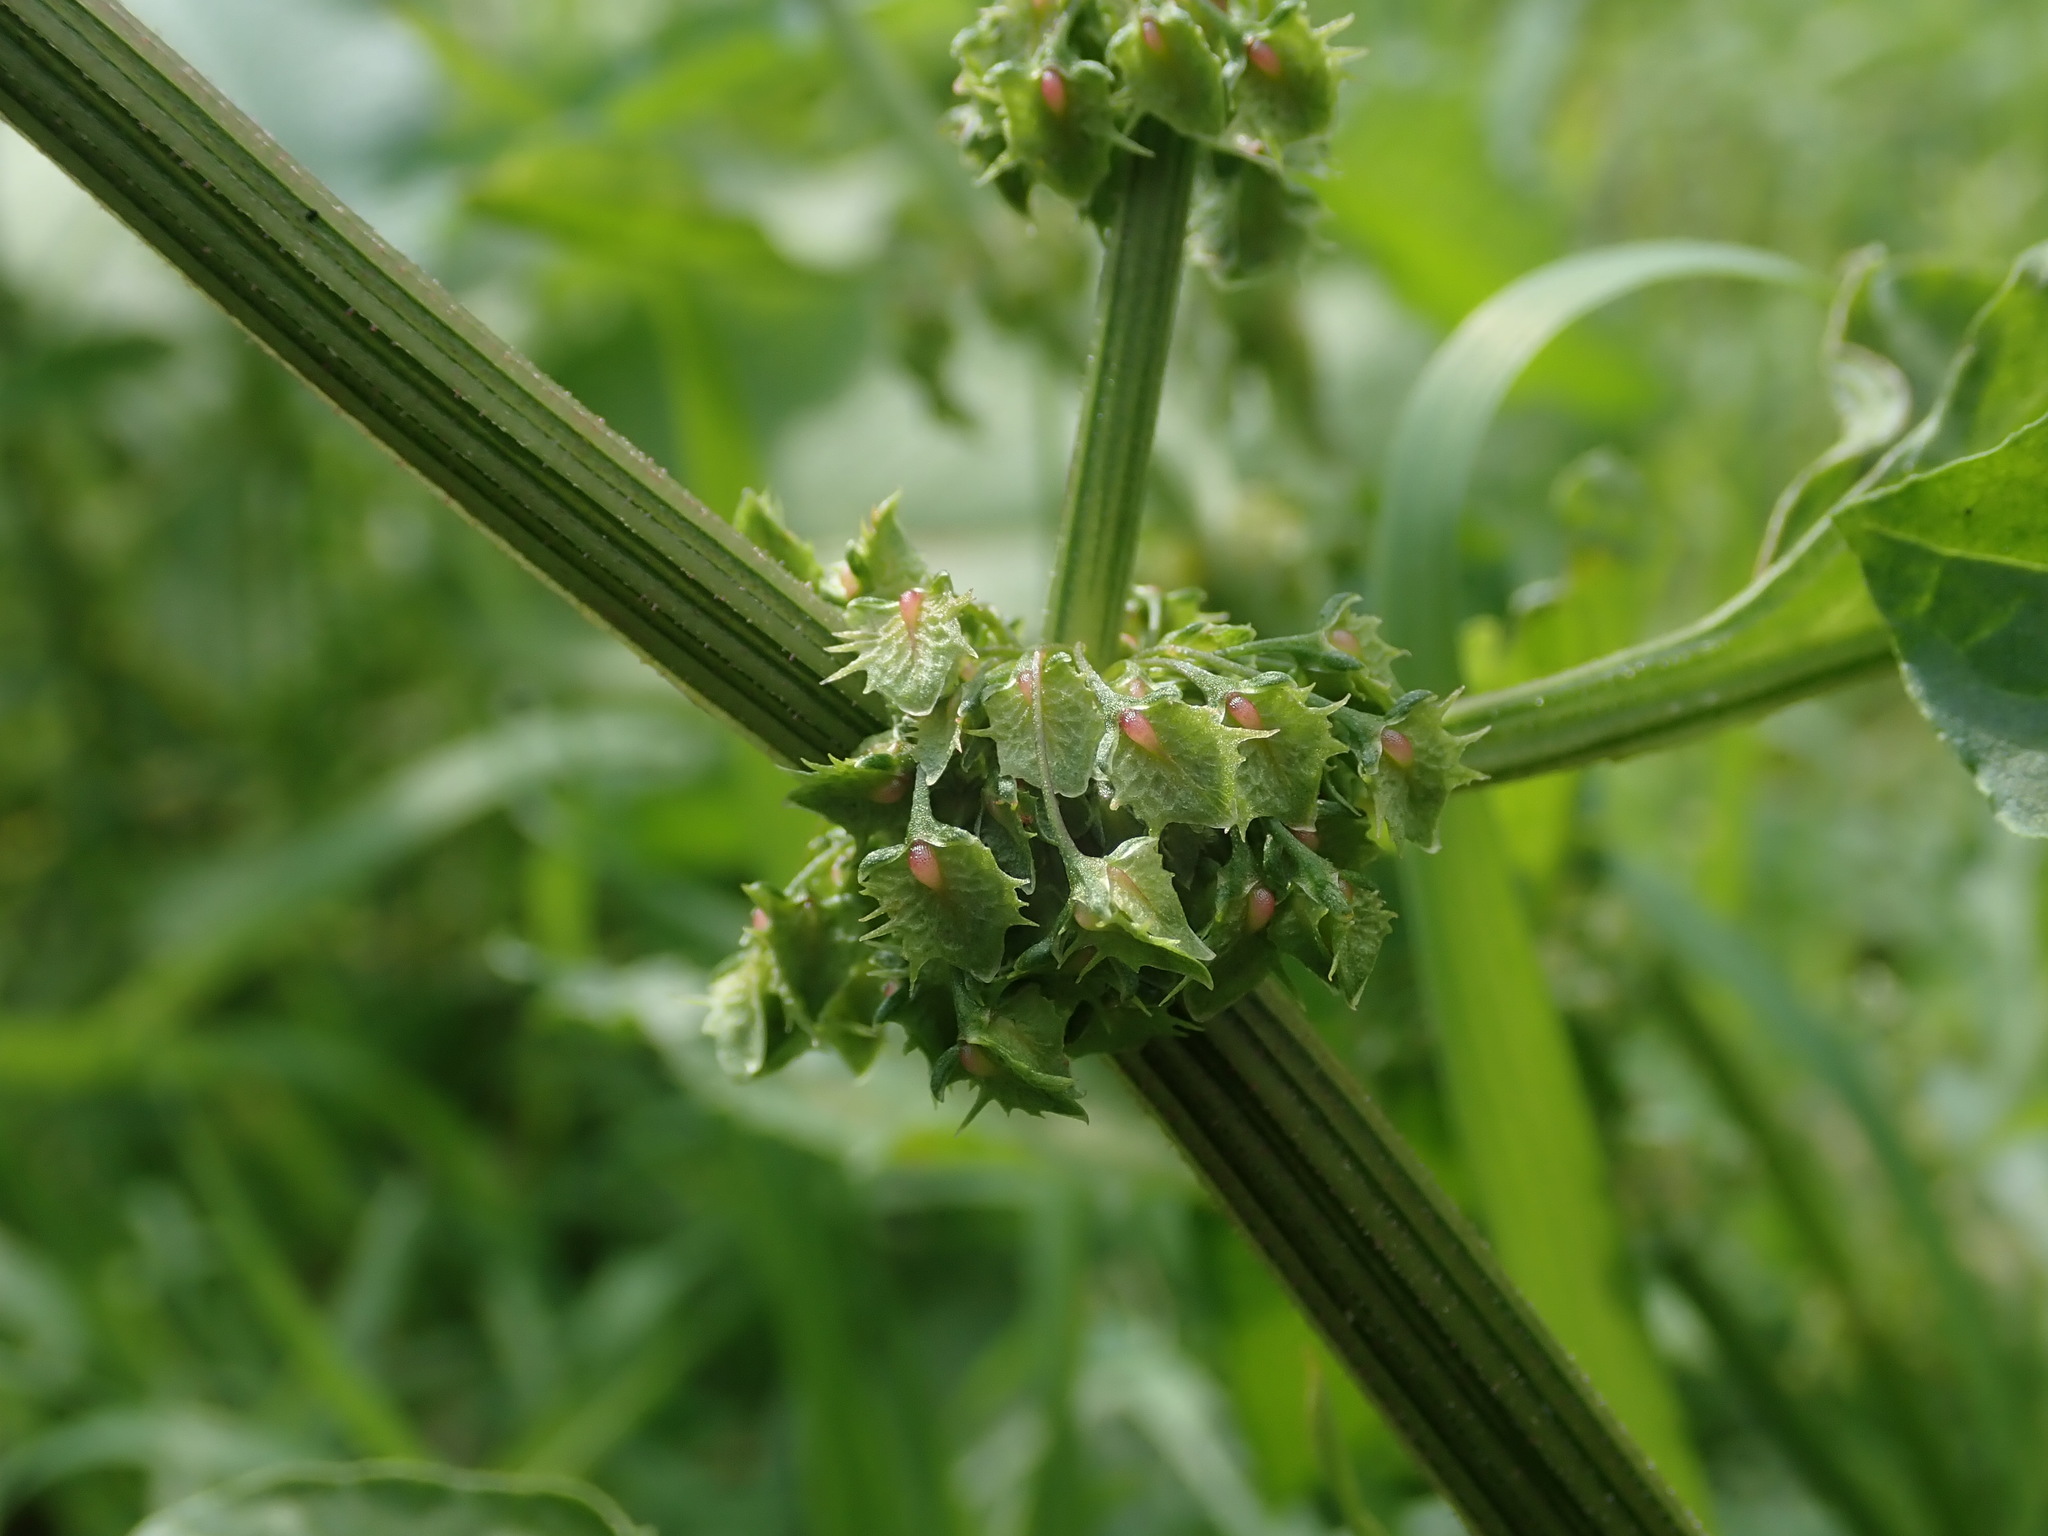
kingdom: Plantae
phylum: Tracheophyta
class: Magnoliopsida
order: Caryophyllales
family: Polygonaceae
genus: Rumex
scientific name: Rumex obtusifolius
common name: Bitter dock
